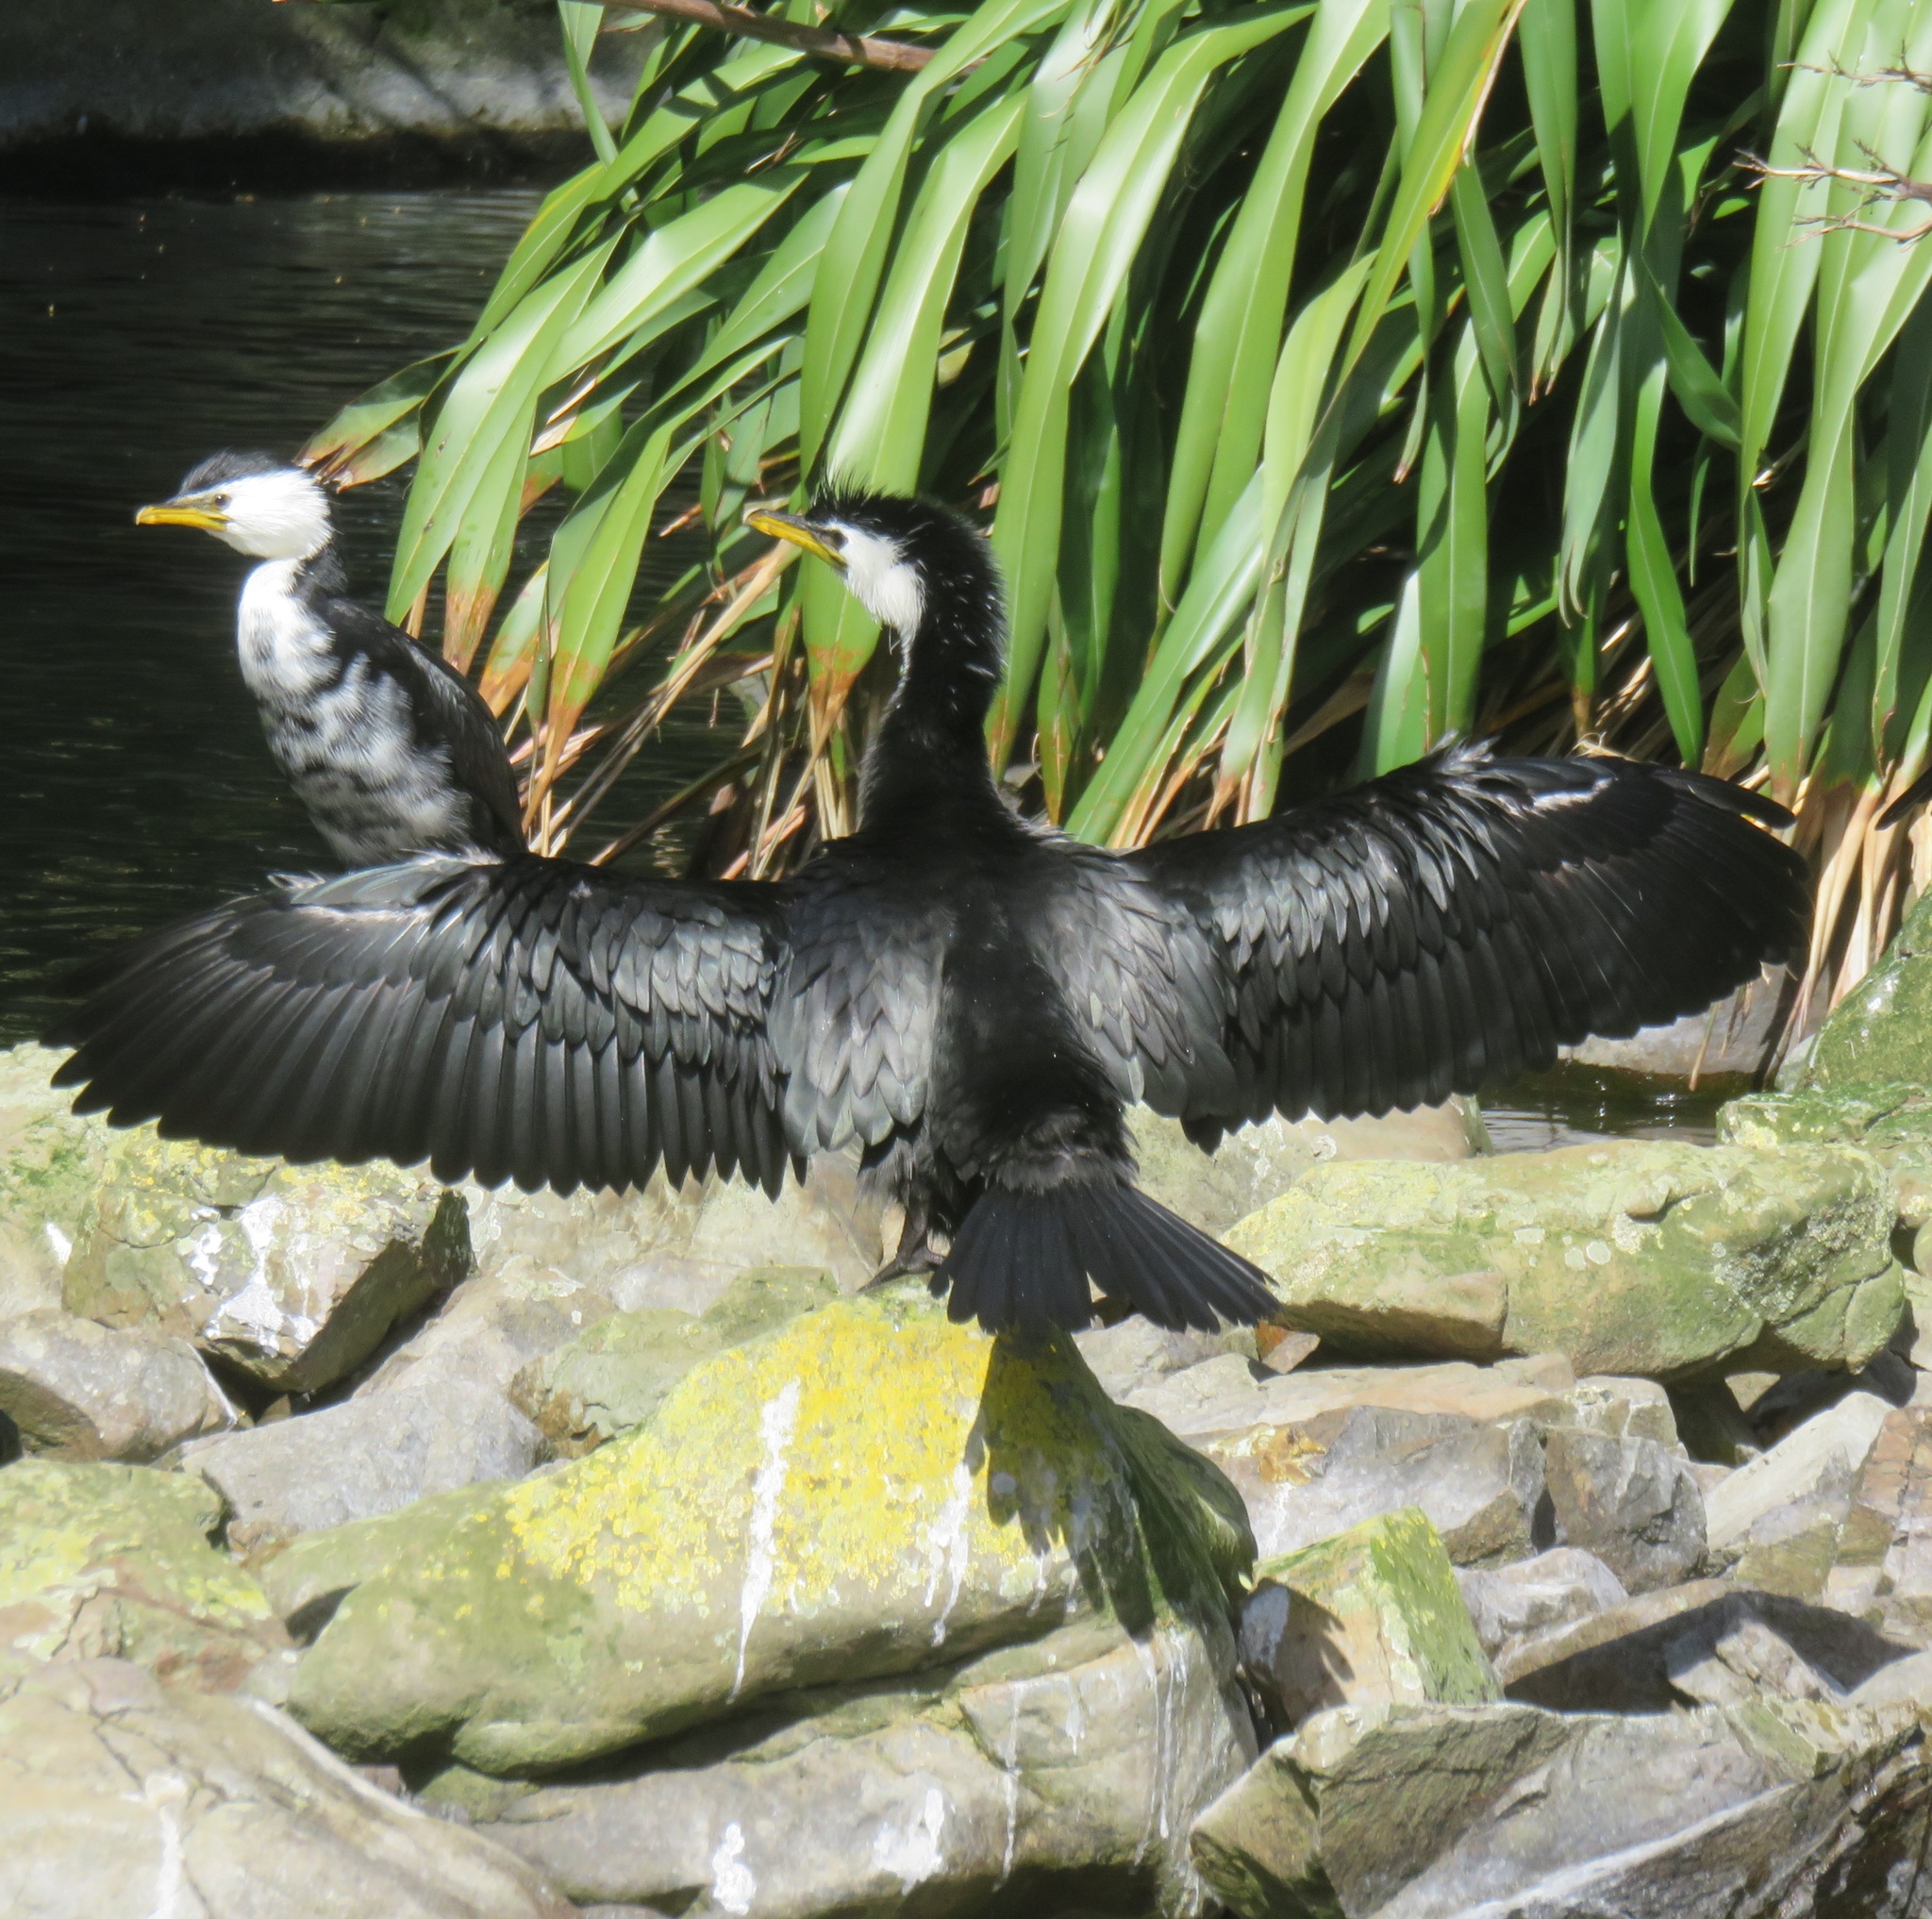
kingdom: Animalia
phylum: Chordata
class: Aves
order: Suliformes
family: Phalacrocoracidae
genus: Microcarbo
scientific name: Microcarbo melanoleucos
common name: Little pied cormorant
